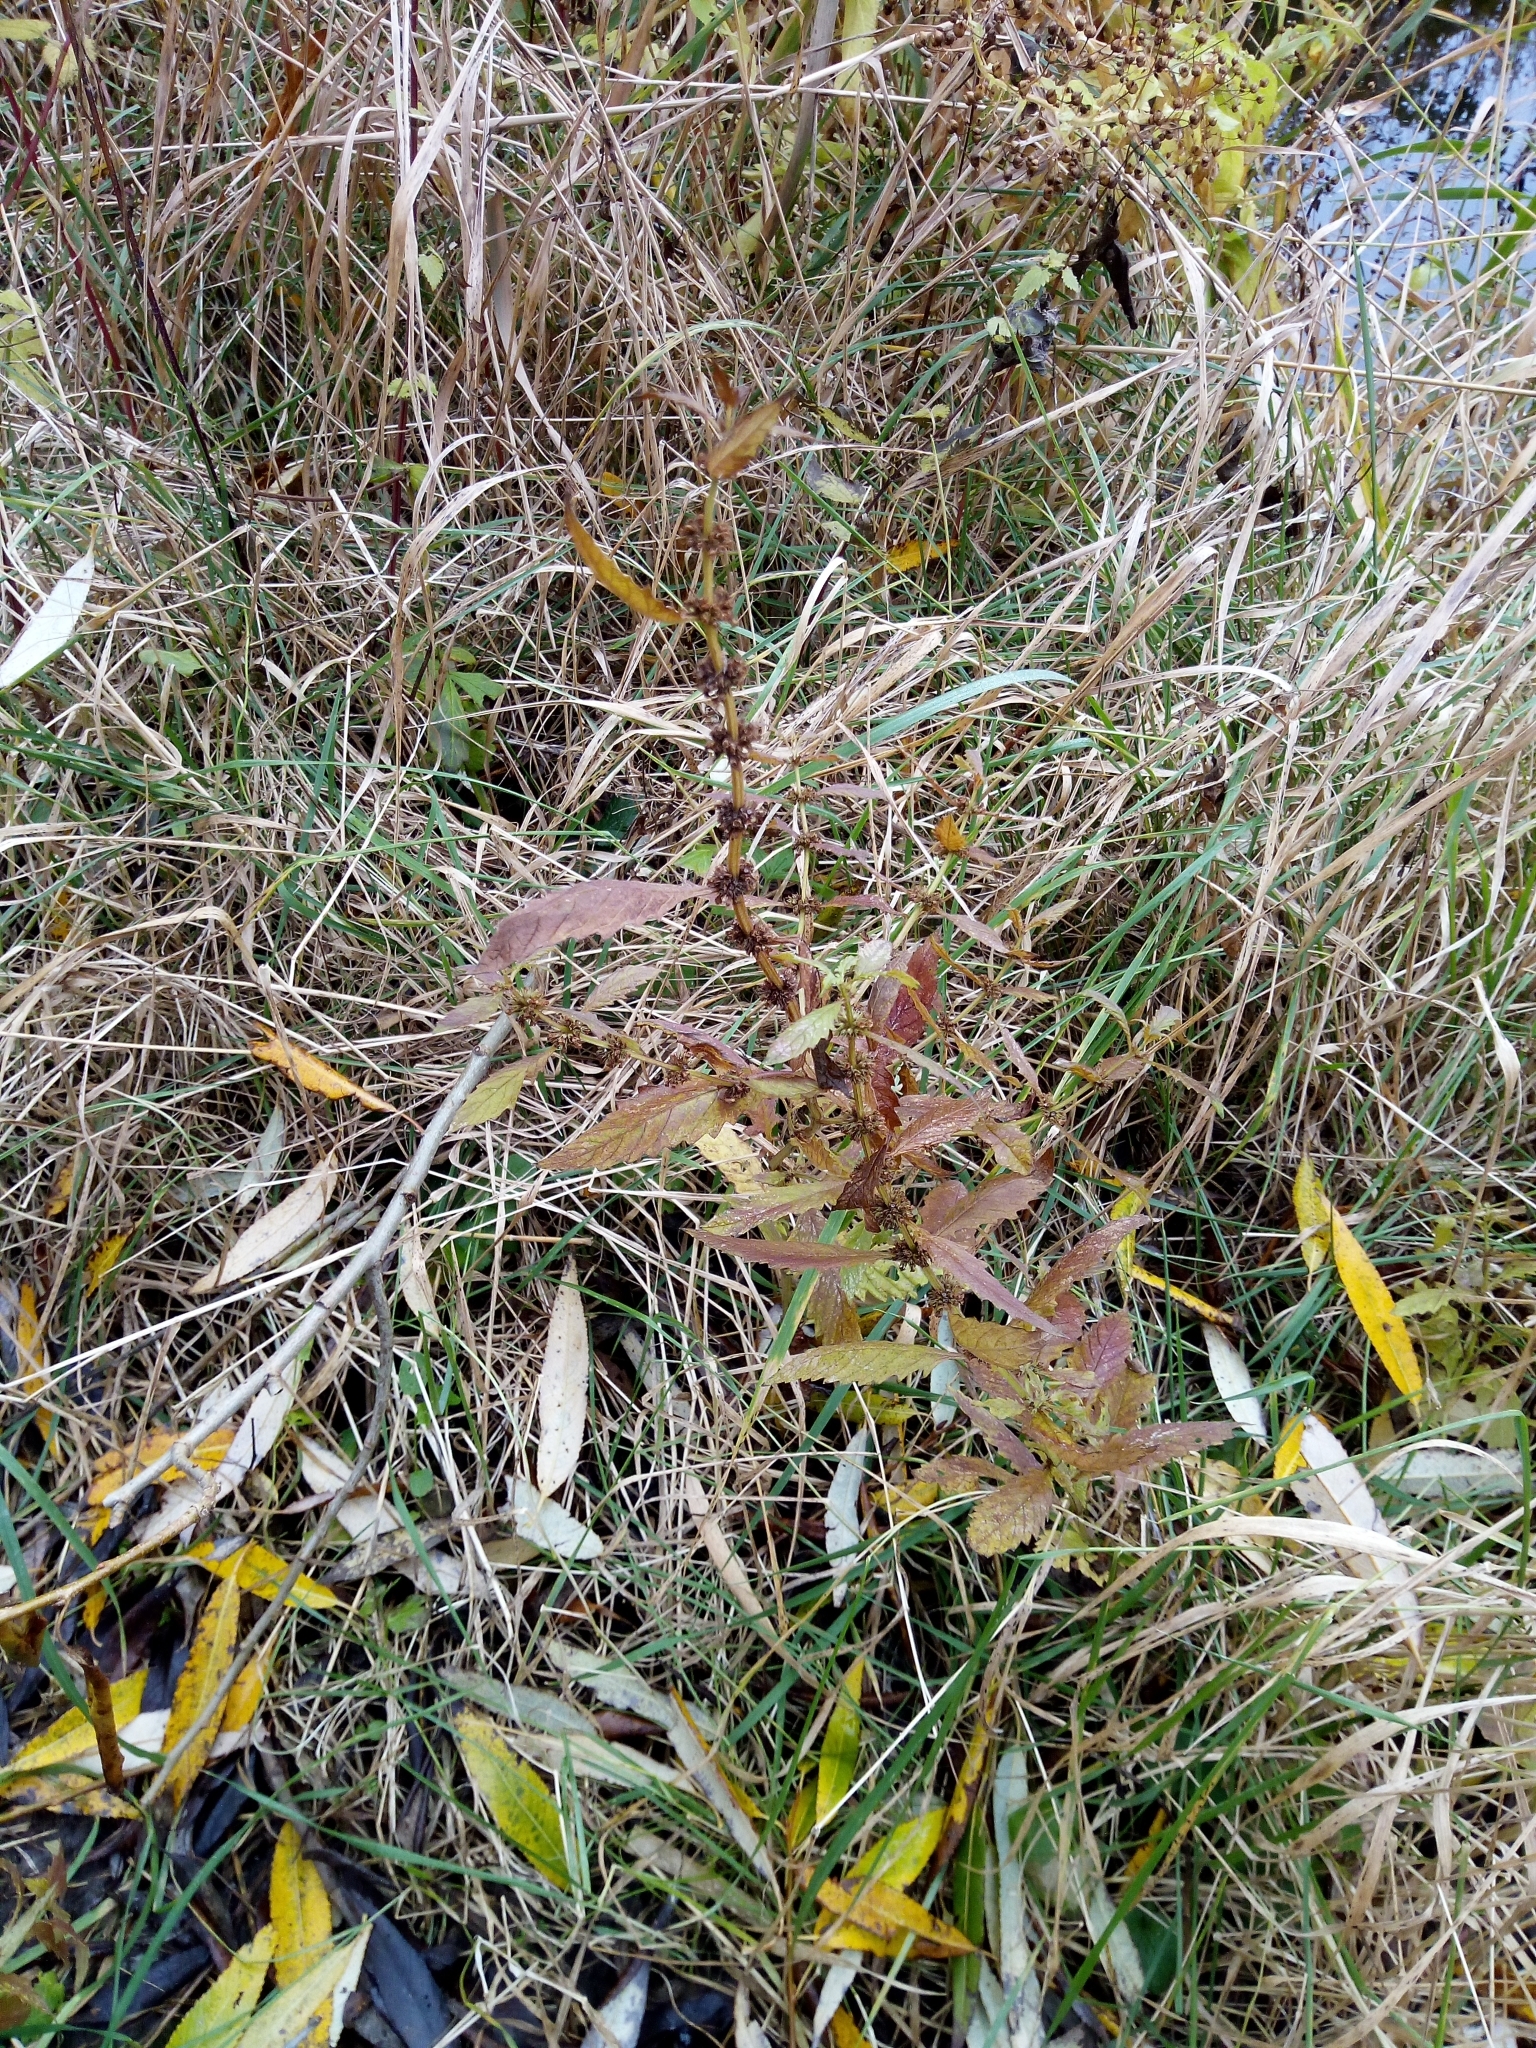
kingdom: Plantae
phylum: Tracheophyta
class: Magnoliopsida
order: Lamiales
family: Lamiaceae
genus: Lycopus
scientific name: Lycopus europaeus
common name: European bugleweed
